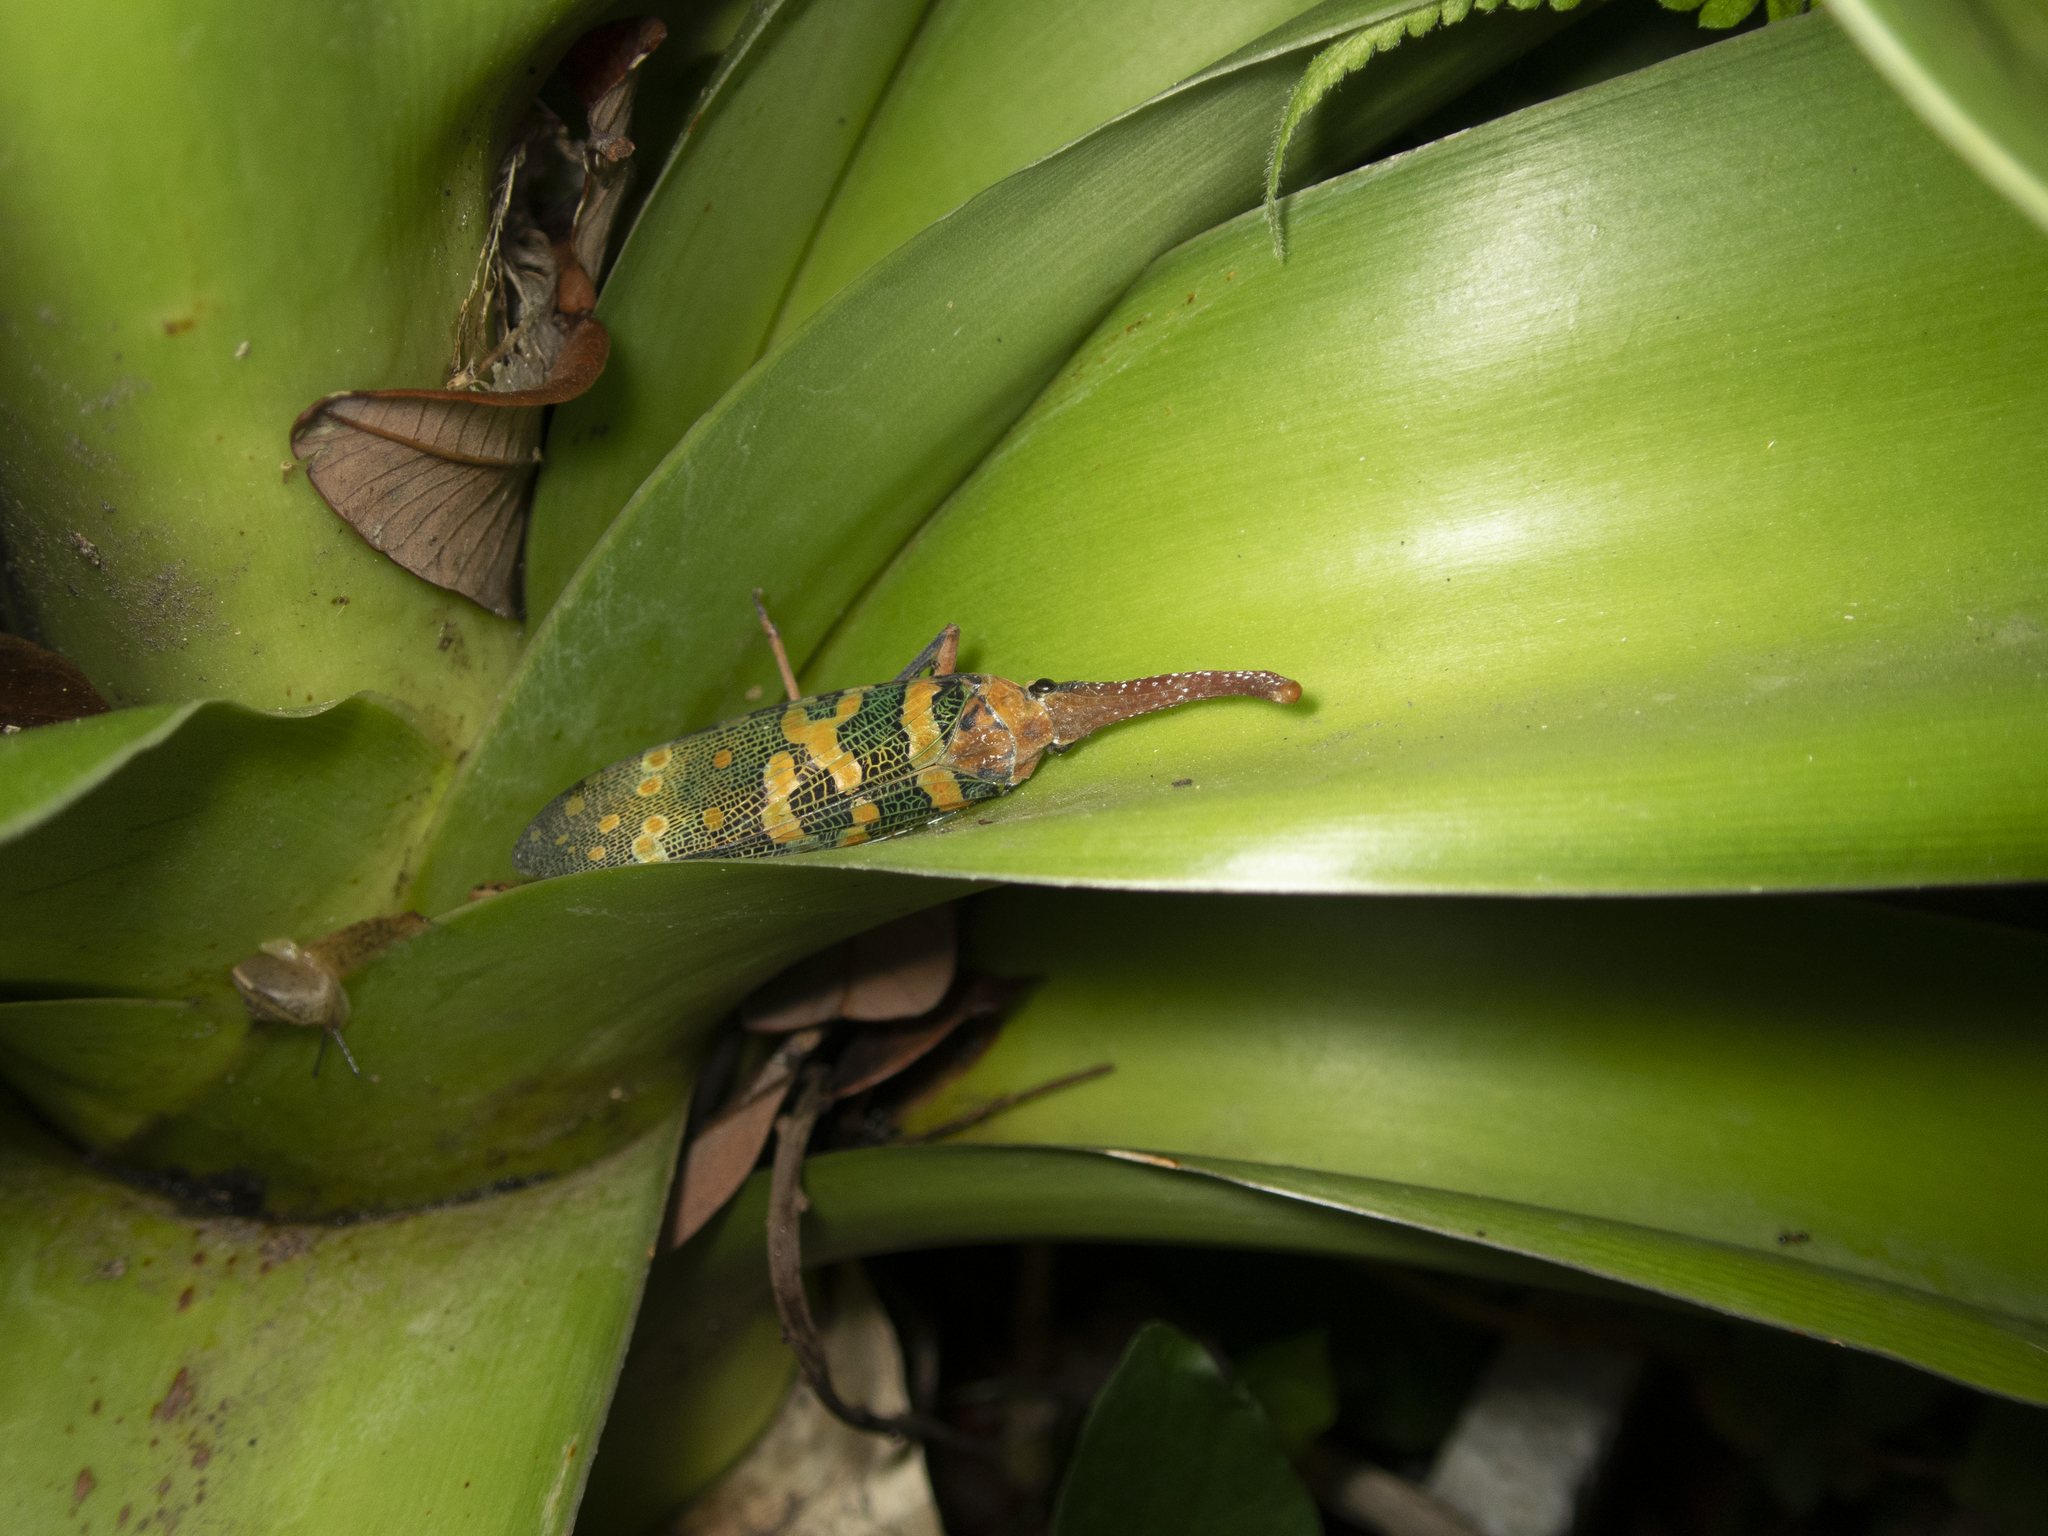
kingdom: Animalia
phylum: Arthropoda
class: Insecta
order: Hemiptera
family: Fulgoridae
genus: Pyrops
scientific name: Pyrops candelaria
